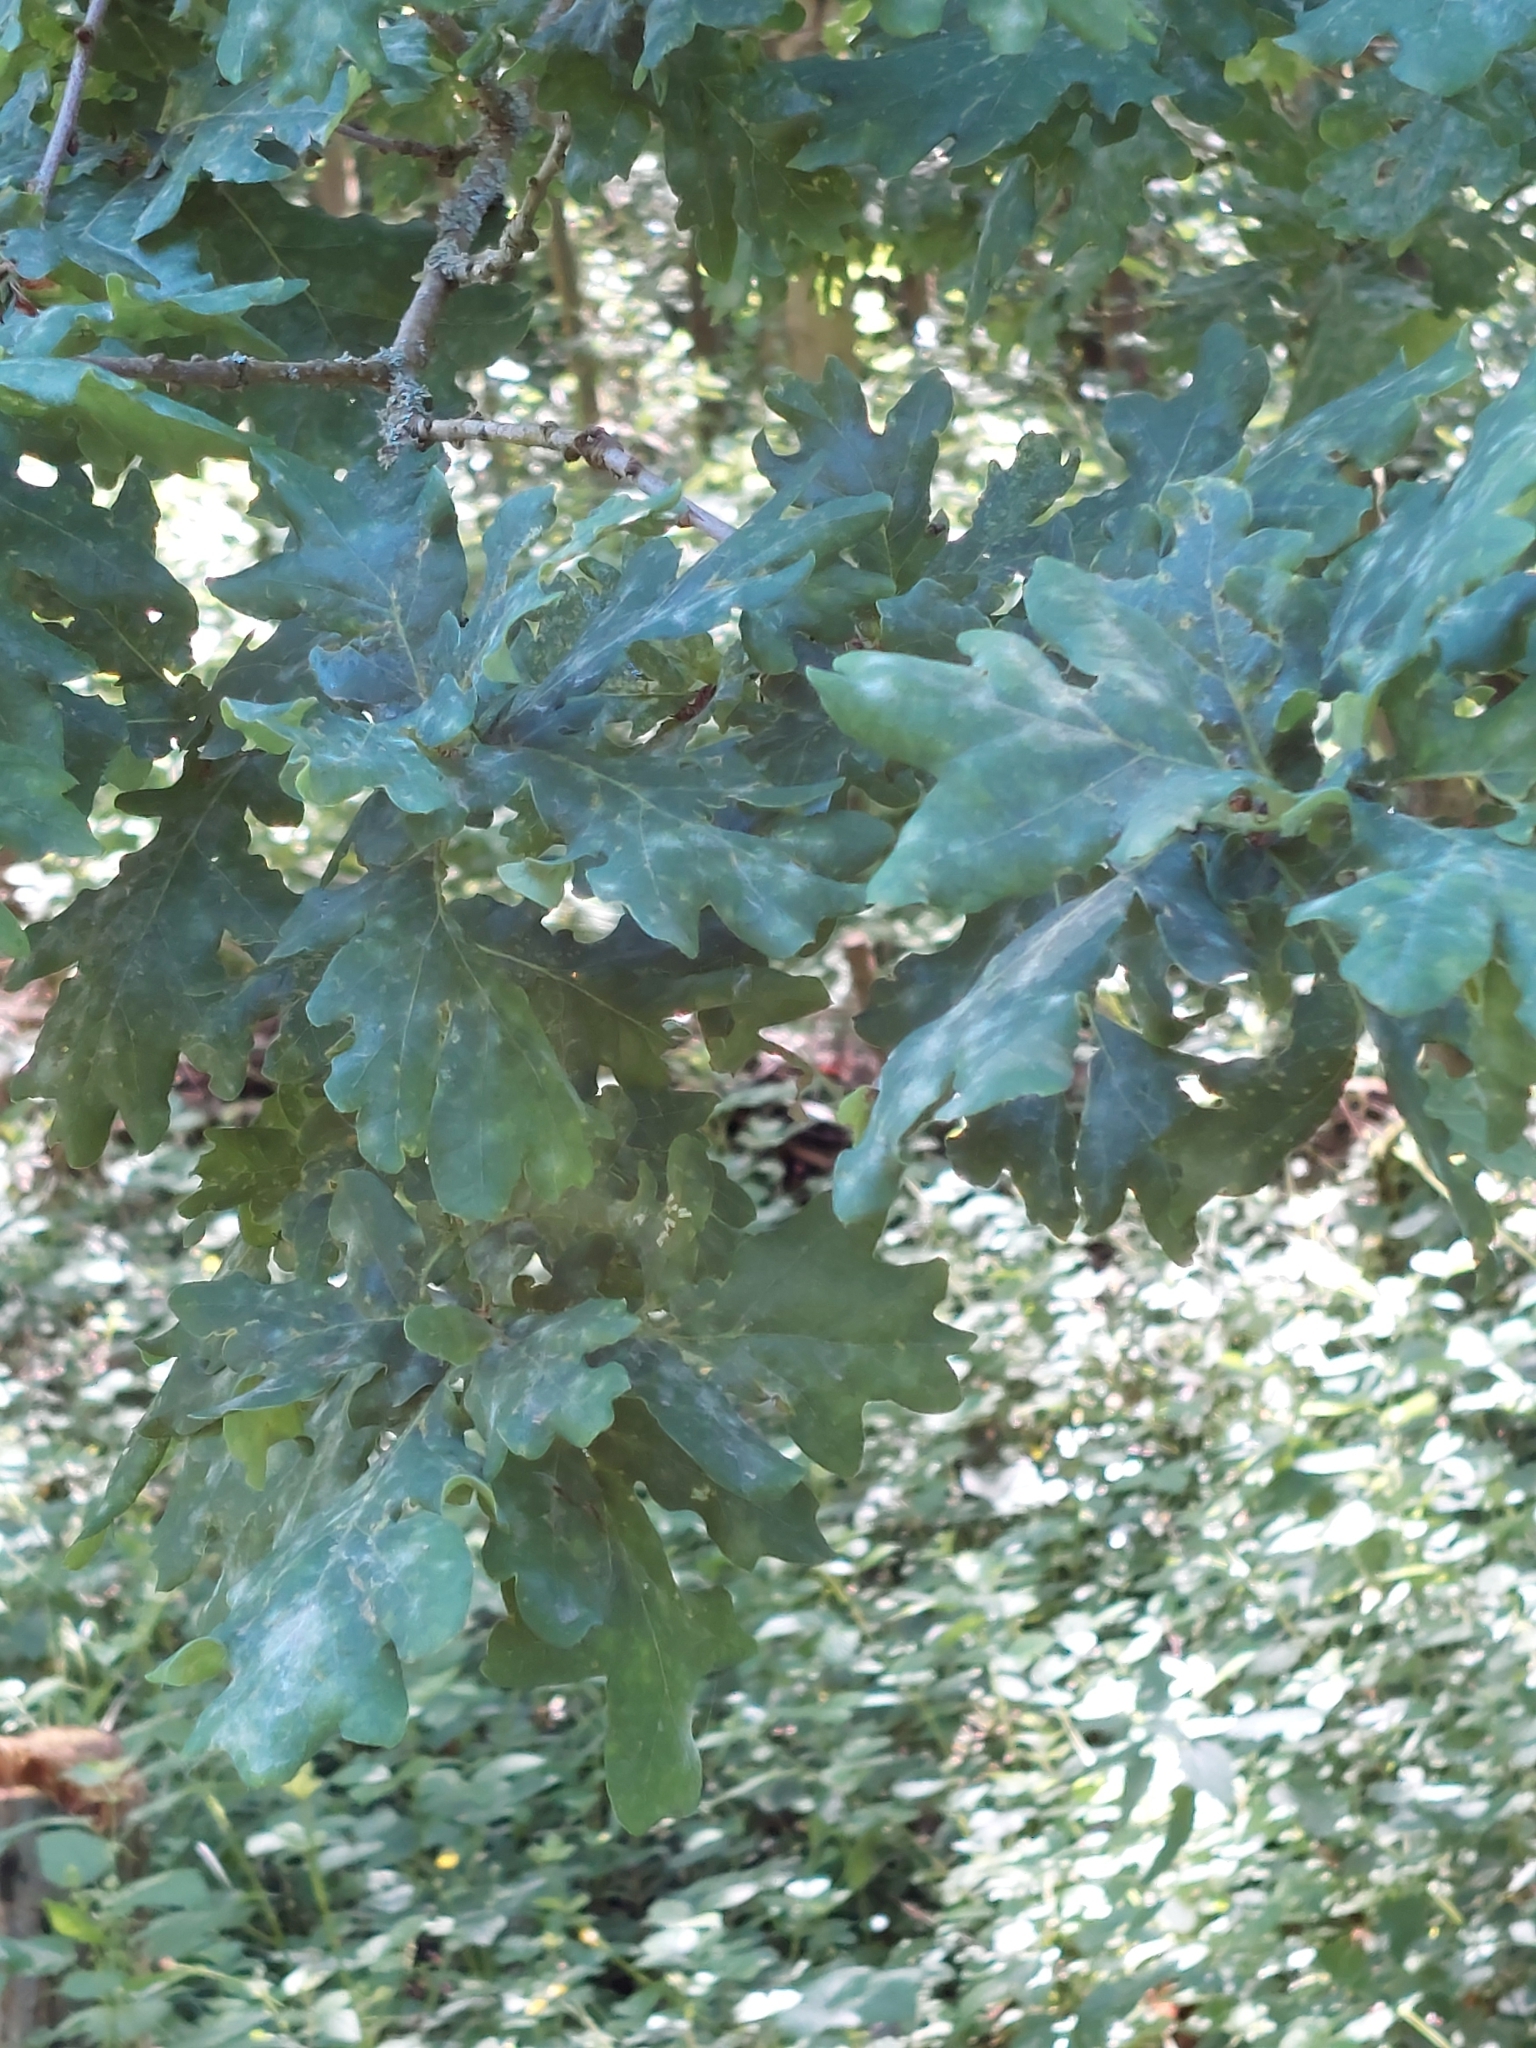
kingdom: Plantae
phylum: Tracheophyta
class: Magnoliopsida
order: Fagales
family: Fagaceae
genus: Quercus
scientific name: Quercus robur
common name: Pedunculate oak
